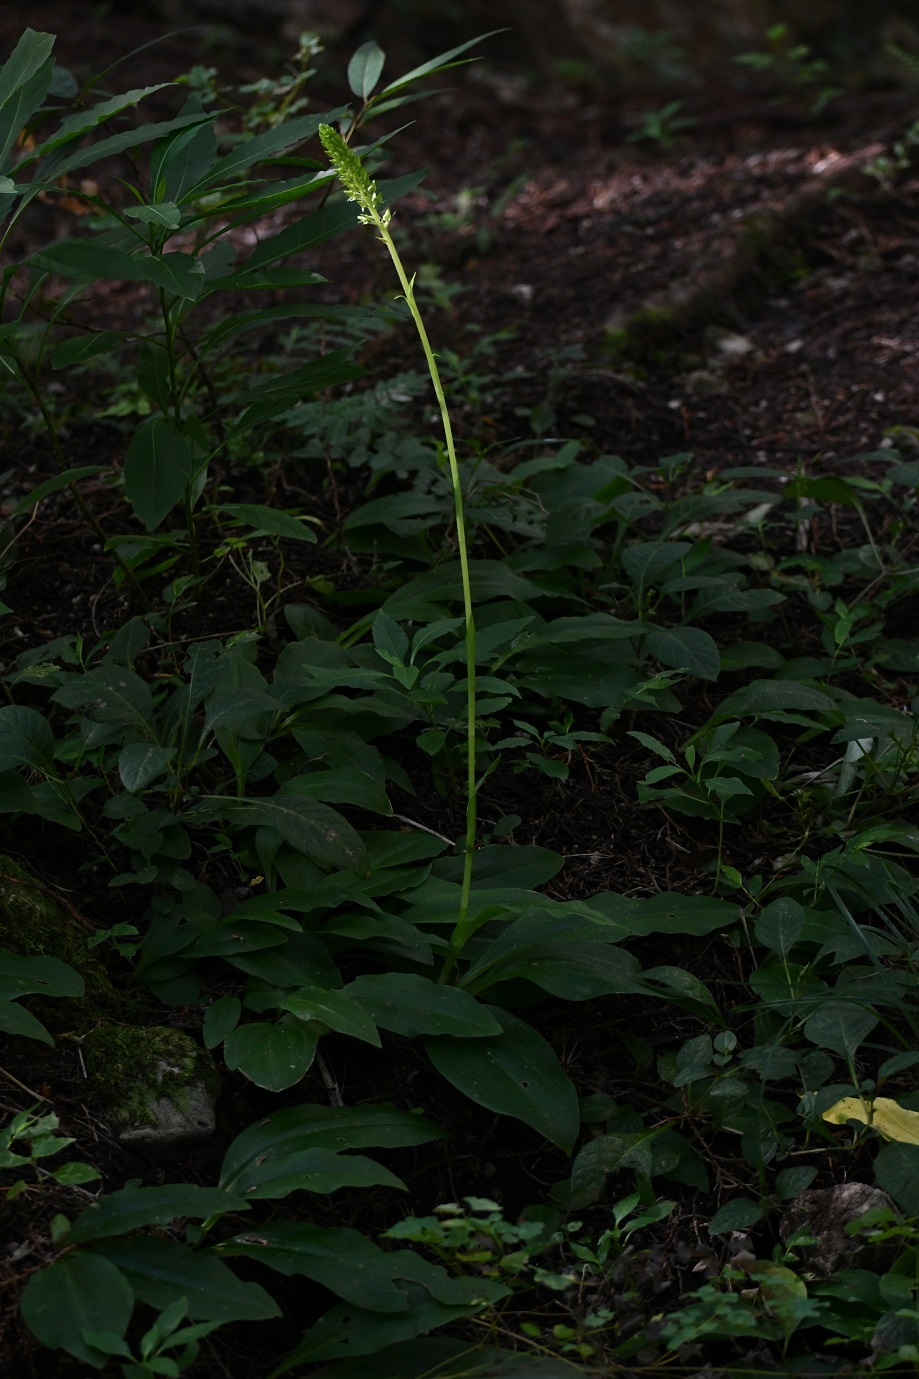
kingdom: Plantae
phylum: Tracheophyta
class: Liliopsida
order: Asparagales
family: Orchidaceae
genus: Ponthieva
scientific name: Ponthieva mexicana
